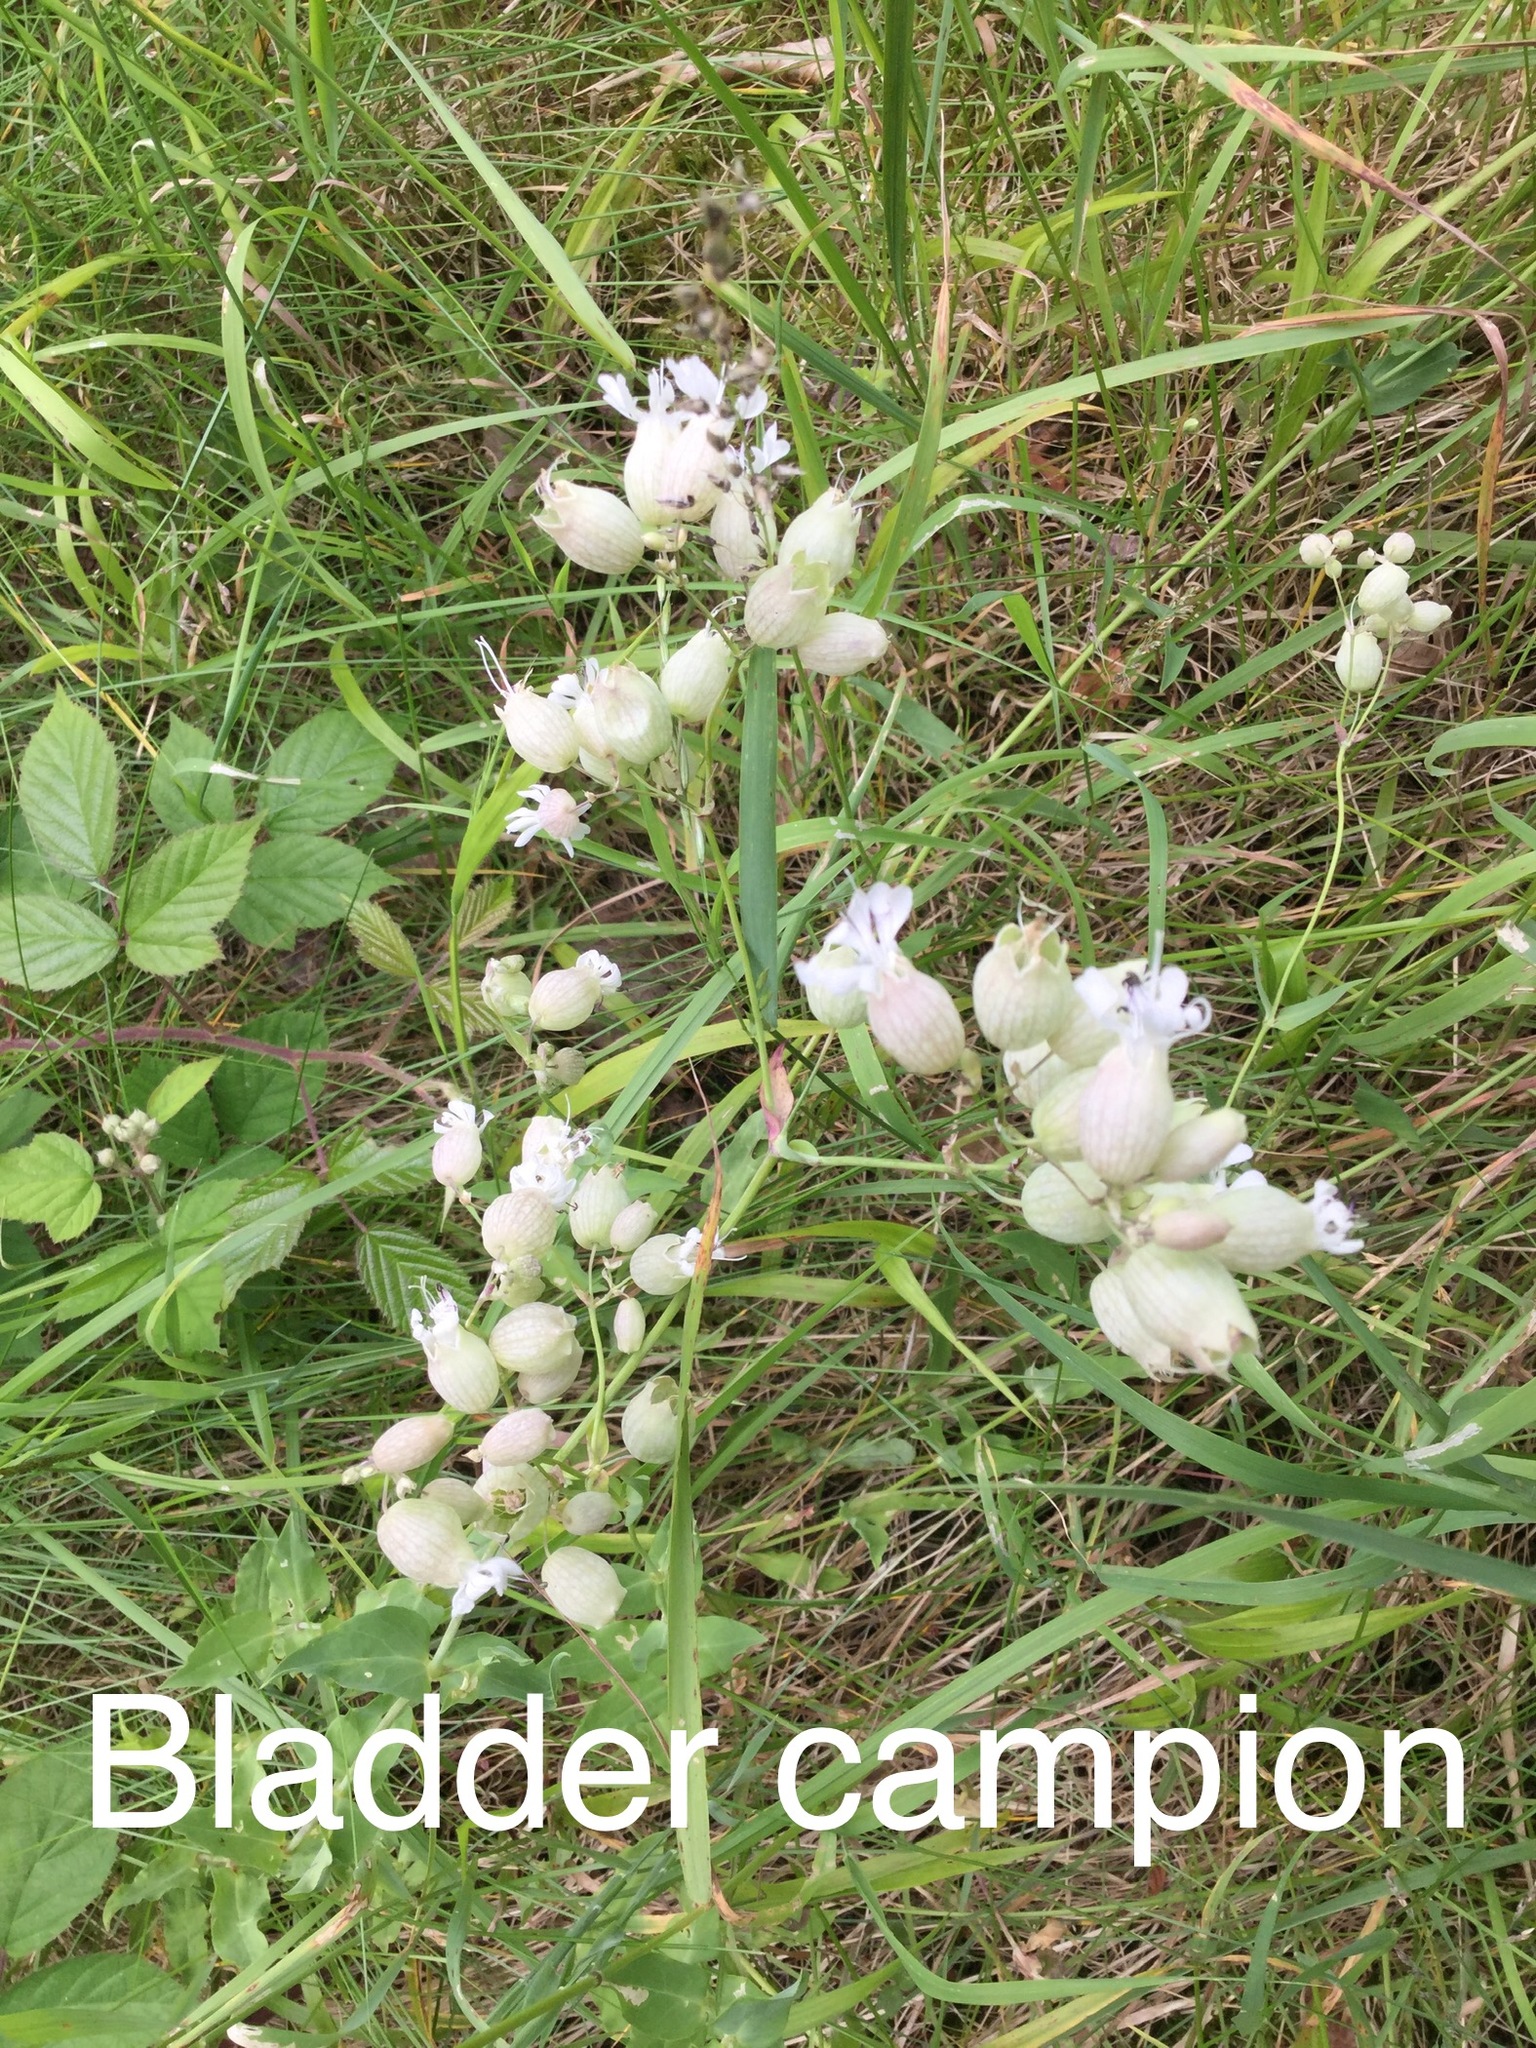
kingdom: Plantae
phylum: Tracheophyta
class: Magnoliopsida
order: Caryophyllales
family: Caryophyllaceae
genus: Silene
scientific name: Silene vulgaris
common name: Bladder campion
